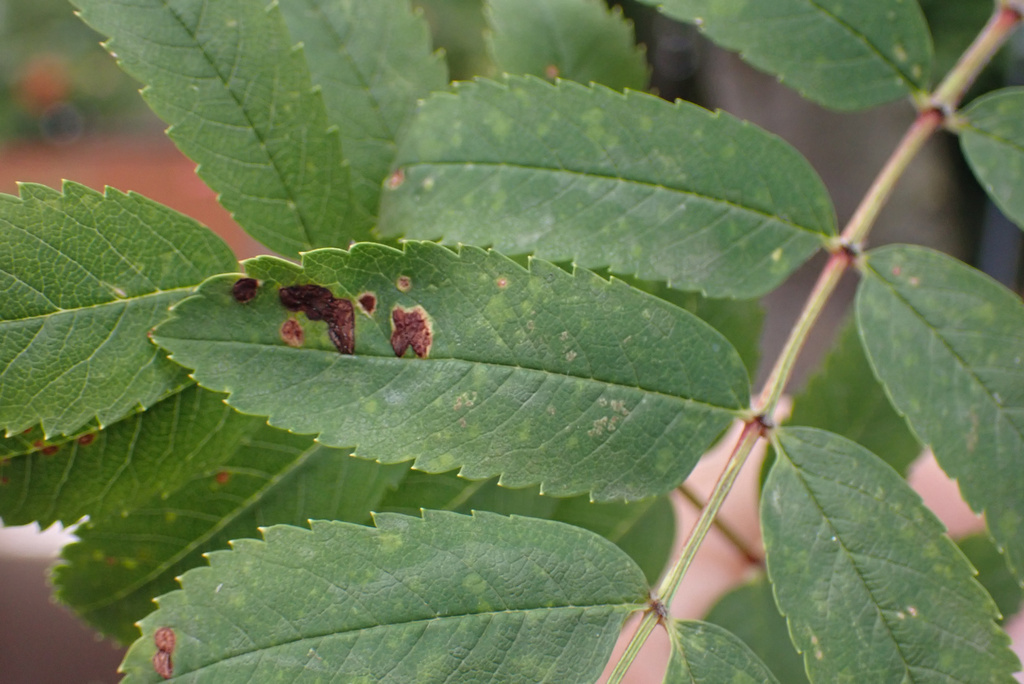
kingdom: Animalia
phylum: Arthropoda
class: Arachnida
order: Trombidiformes
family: Eriophyidae
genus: Eriophyes
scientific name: Eriophyes pyri
